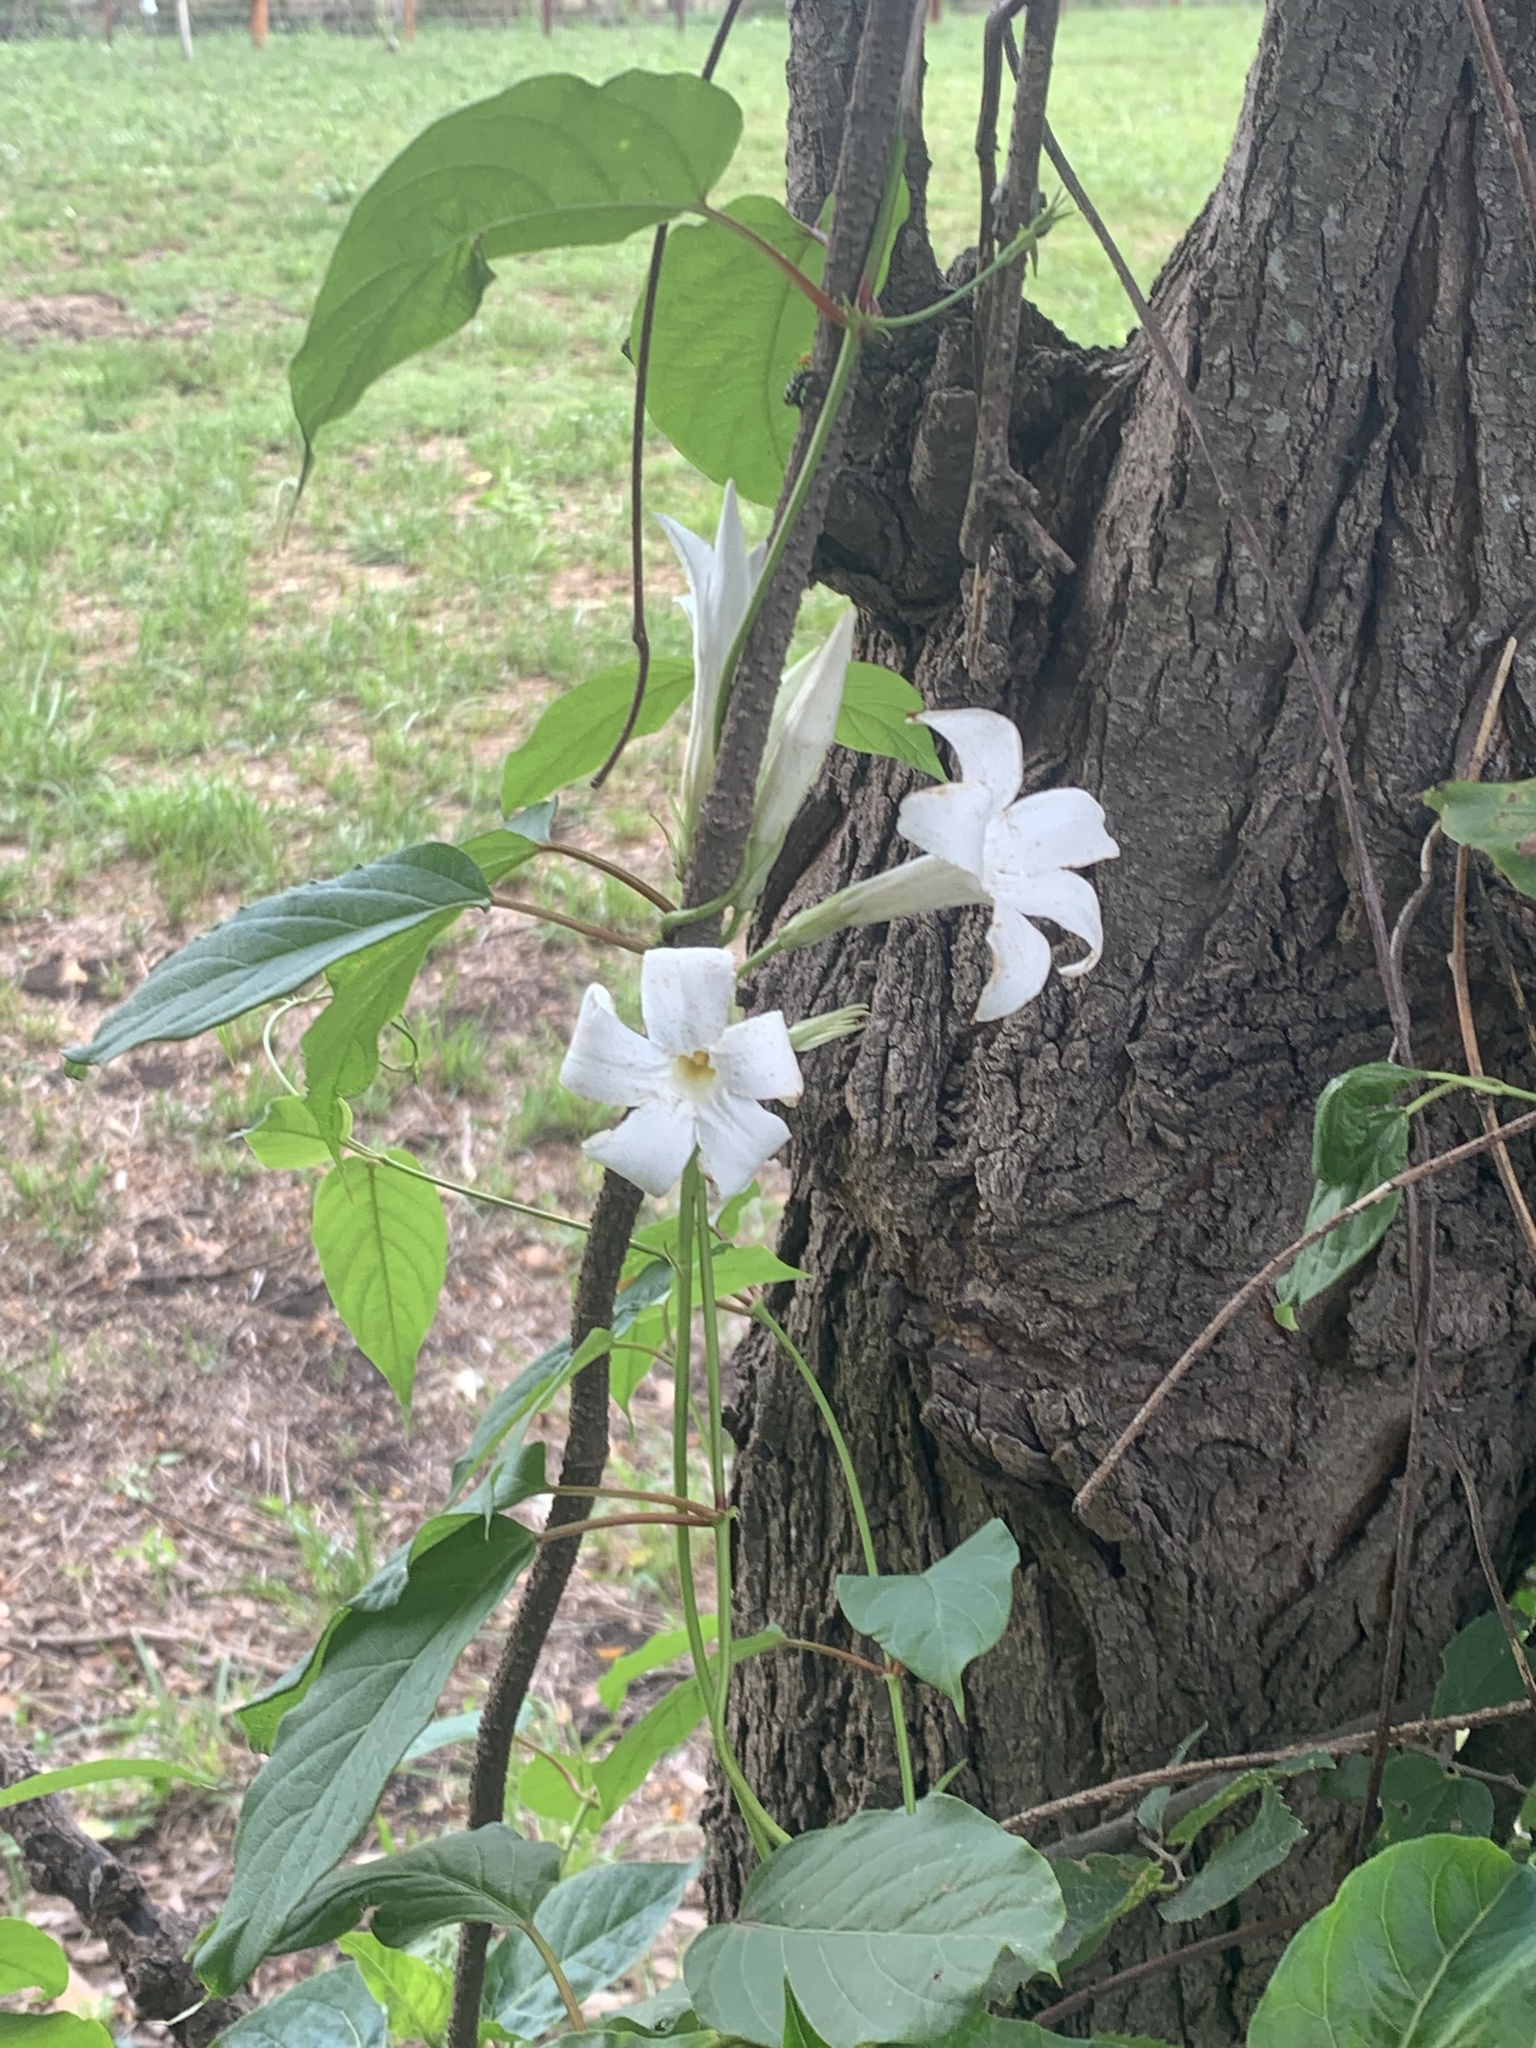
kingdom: Plantae
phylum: Tracheophyta
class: Magnoliopsida
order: Gentianales
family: Apocynaceae
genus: Mandevilla
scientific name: Mandevilla laxa
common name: Chilean-jasmine
